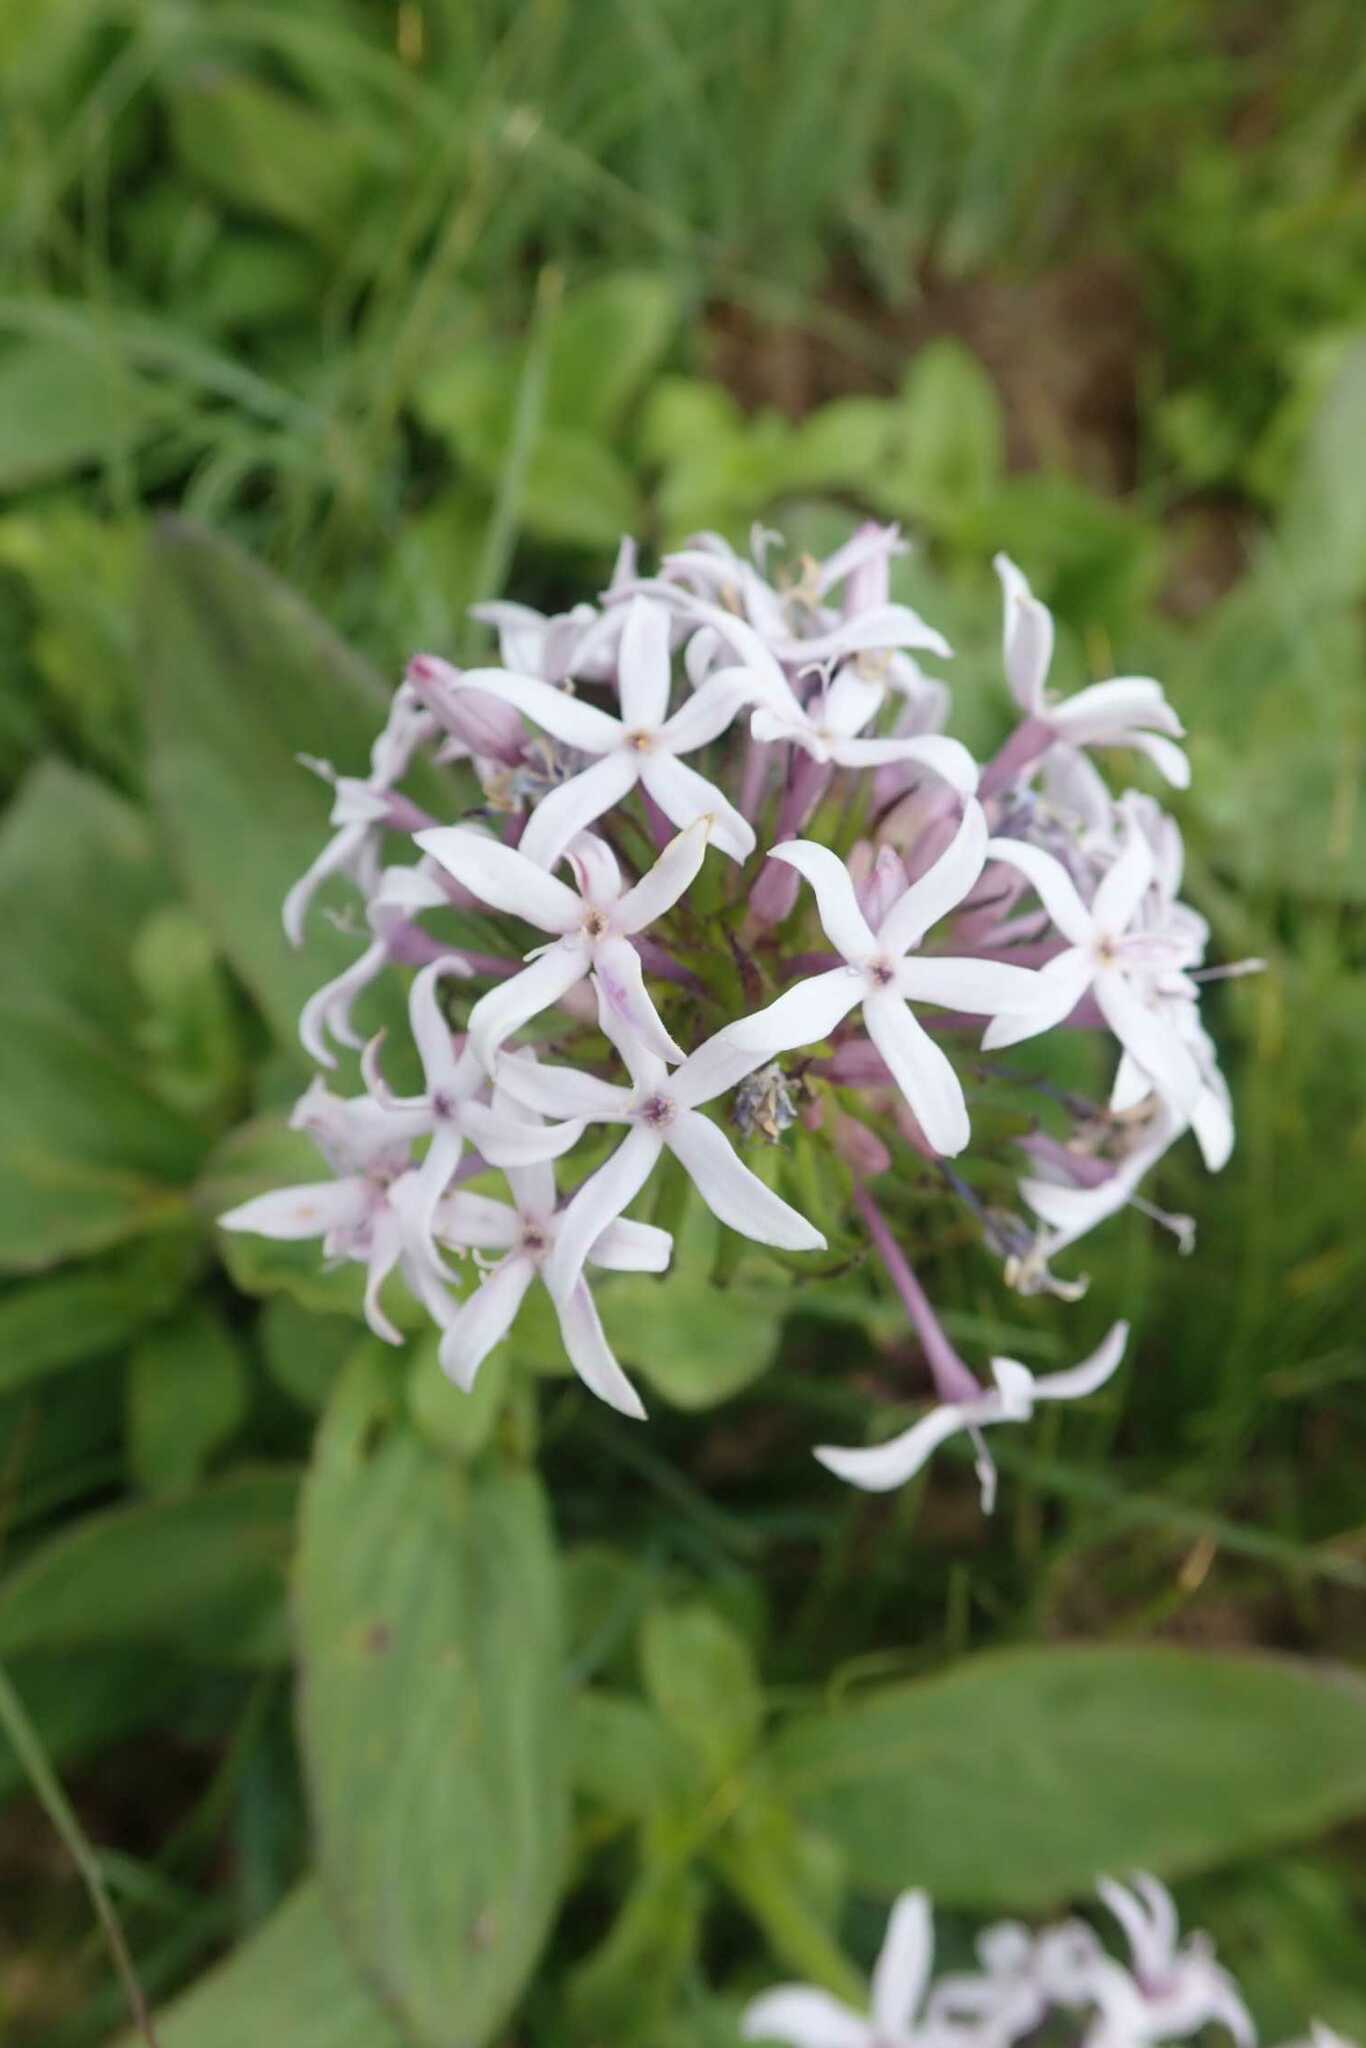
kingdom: Plantae
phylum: Tracheophyta
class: Magnoliopsida
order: Gentianales
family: Rubiaceae
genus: Pentanisia
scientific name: Pentanisia prunelloides
